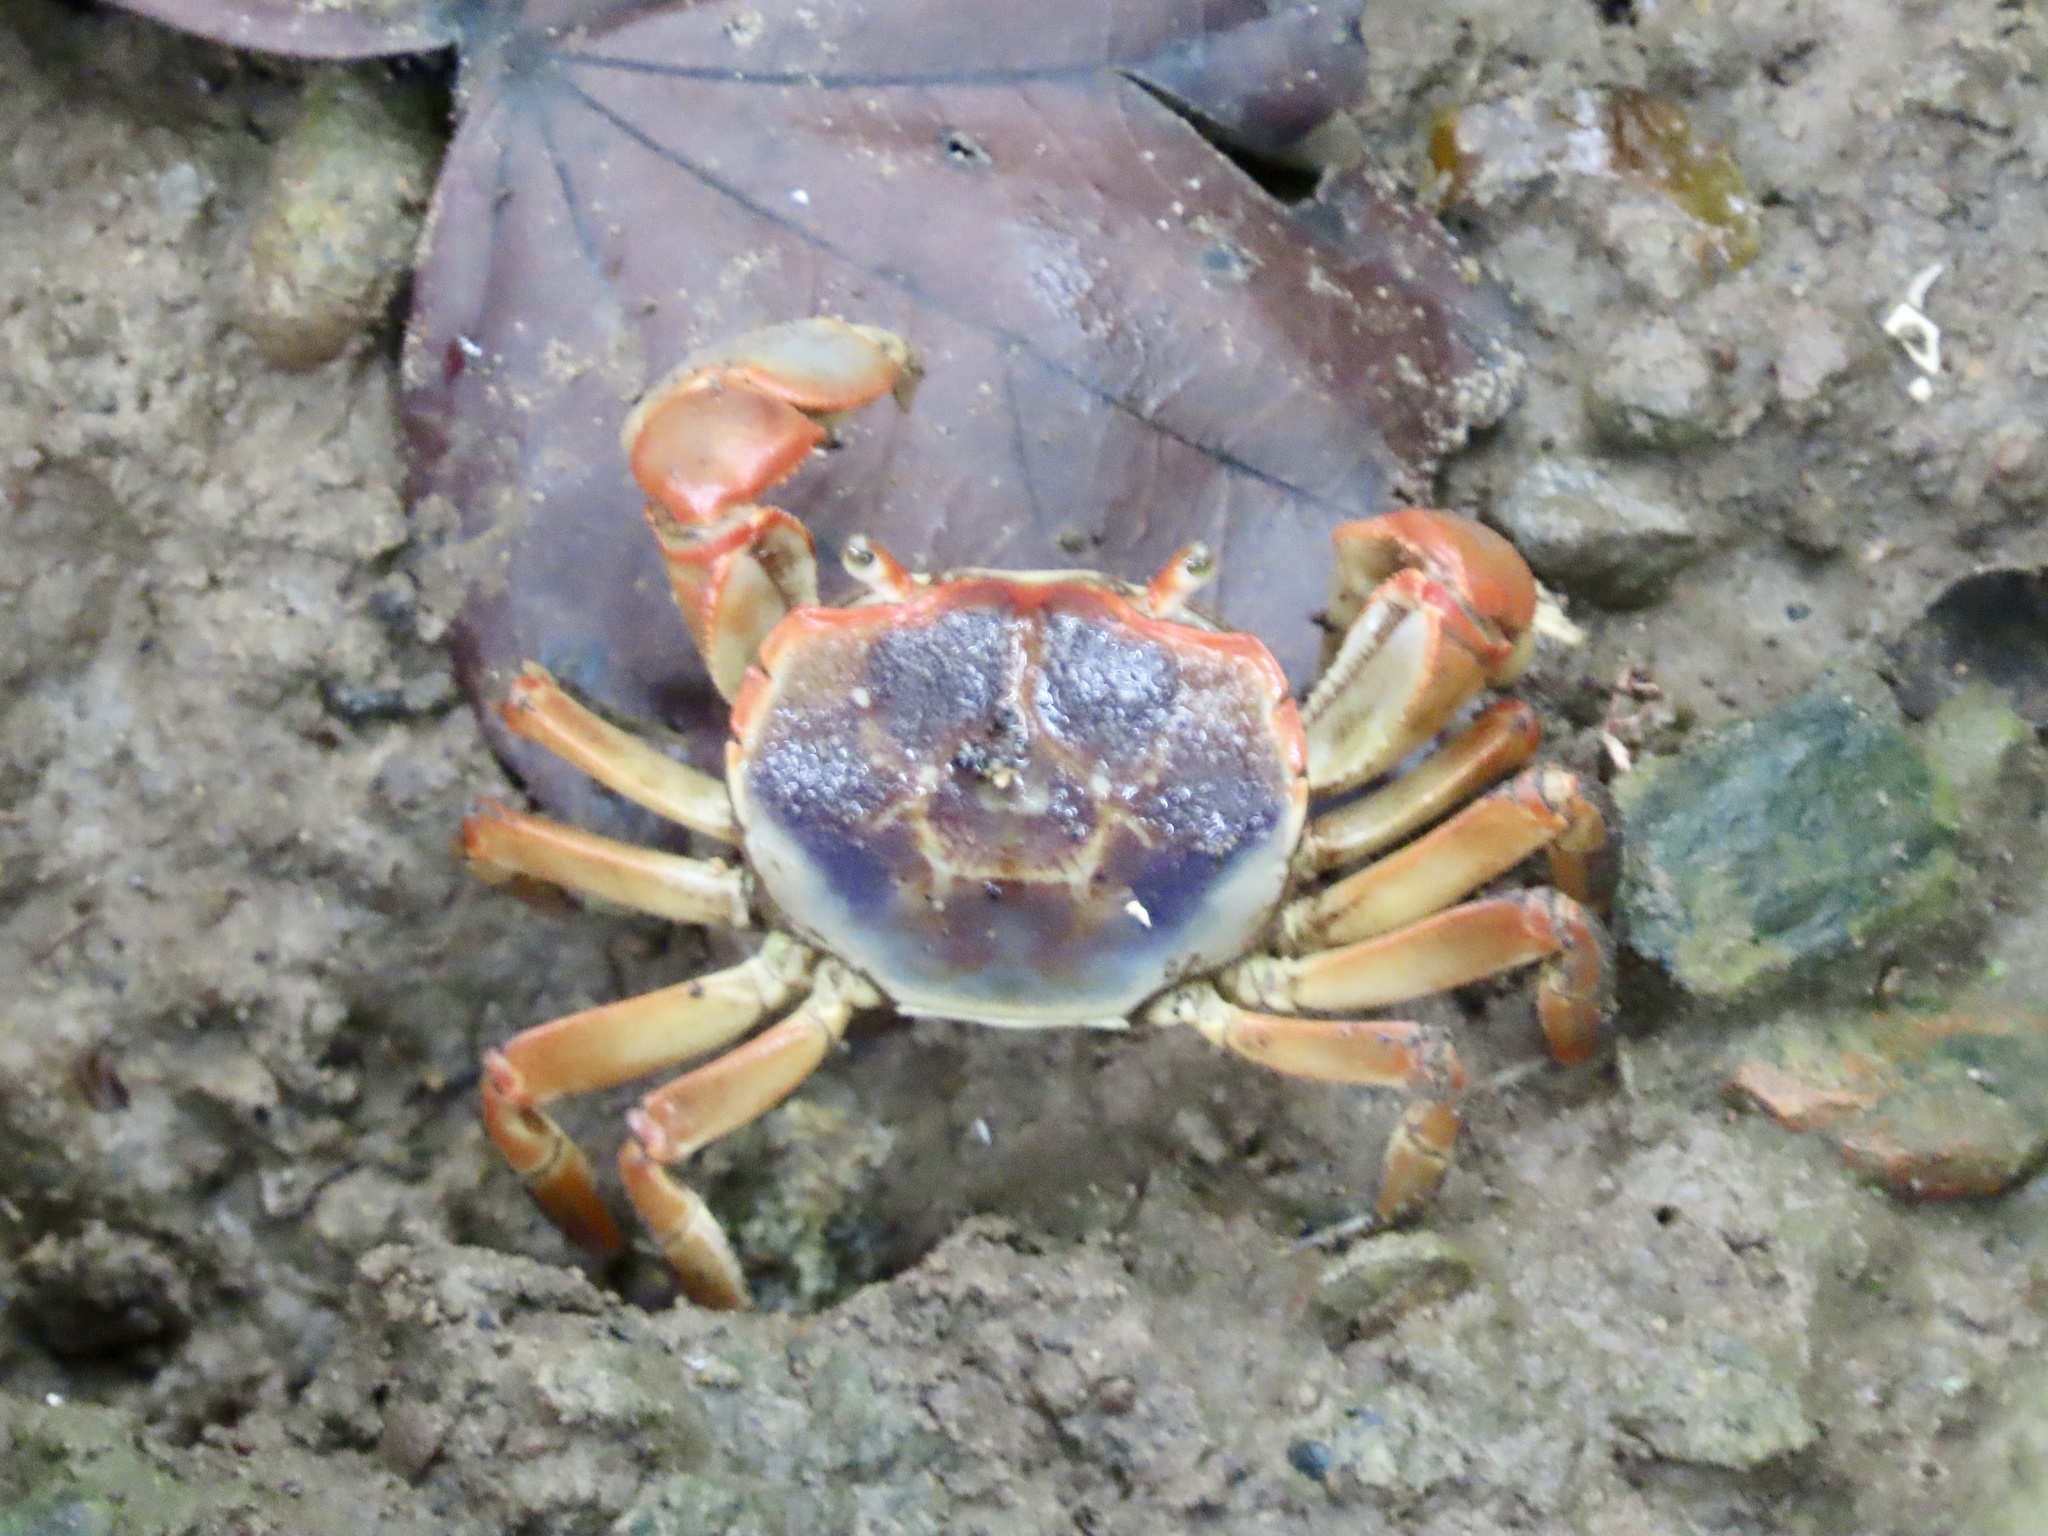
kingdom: Animalia
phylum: Arthropoda
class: Malacostraca
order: Decapoda
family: Varunidae
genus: Chasmagnathus
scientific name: Chasmagnathus convexus
